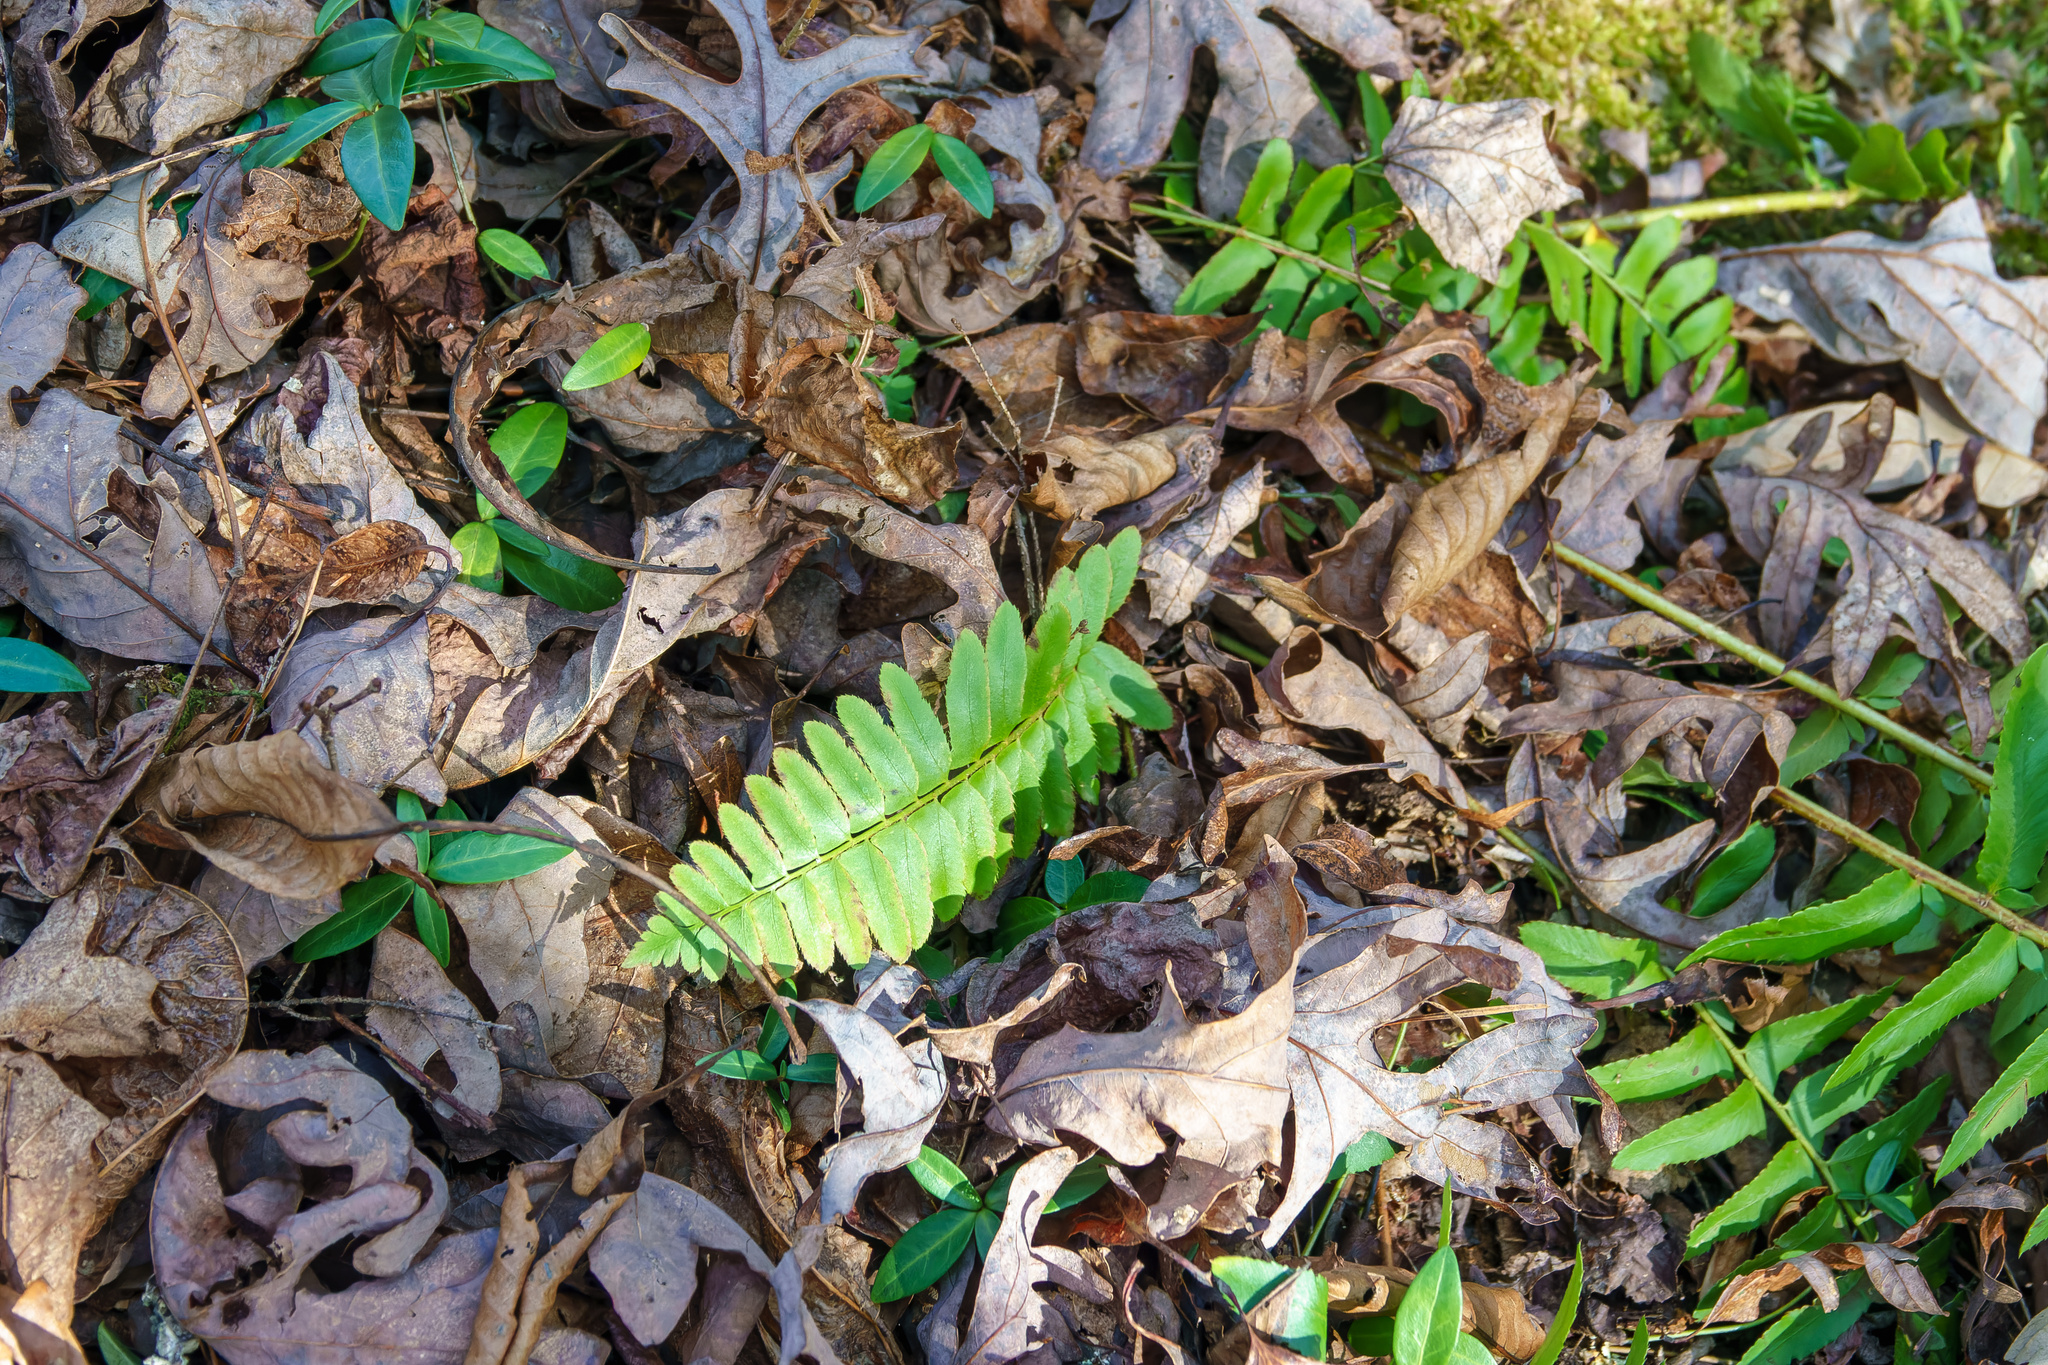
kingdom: Plantae
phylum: Tracheophyta
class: Polypodiopsida
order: Polypodiales
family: Dryopteridaceae
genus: Polystichum
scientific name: Polystichum acrostichoides
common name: Christmas fern
